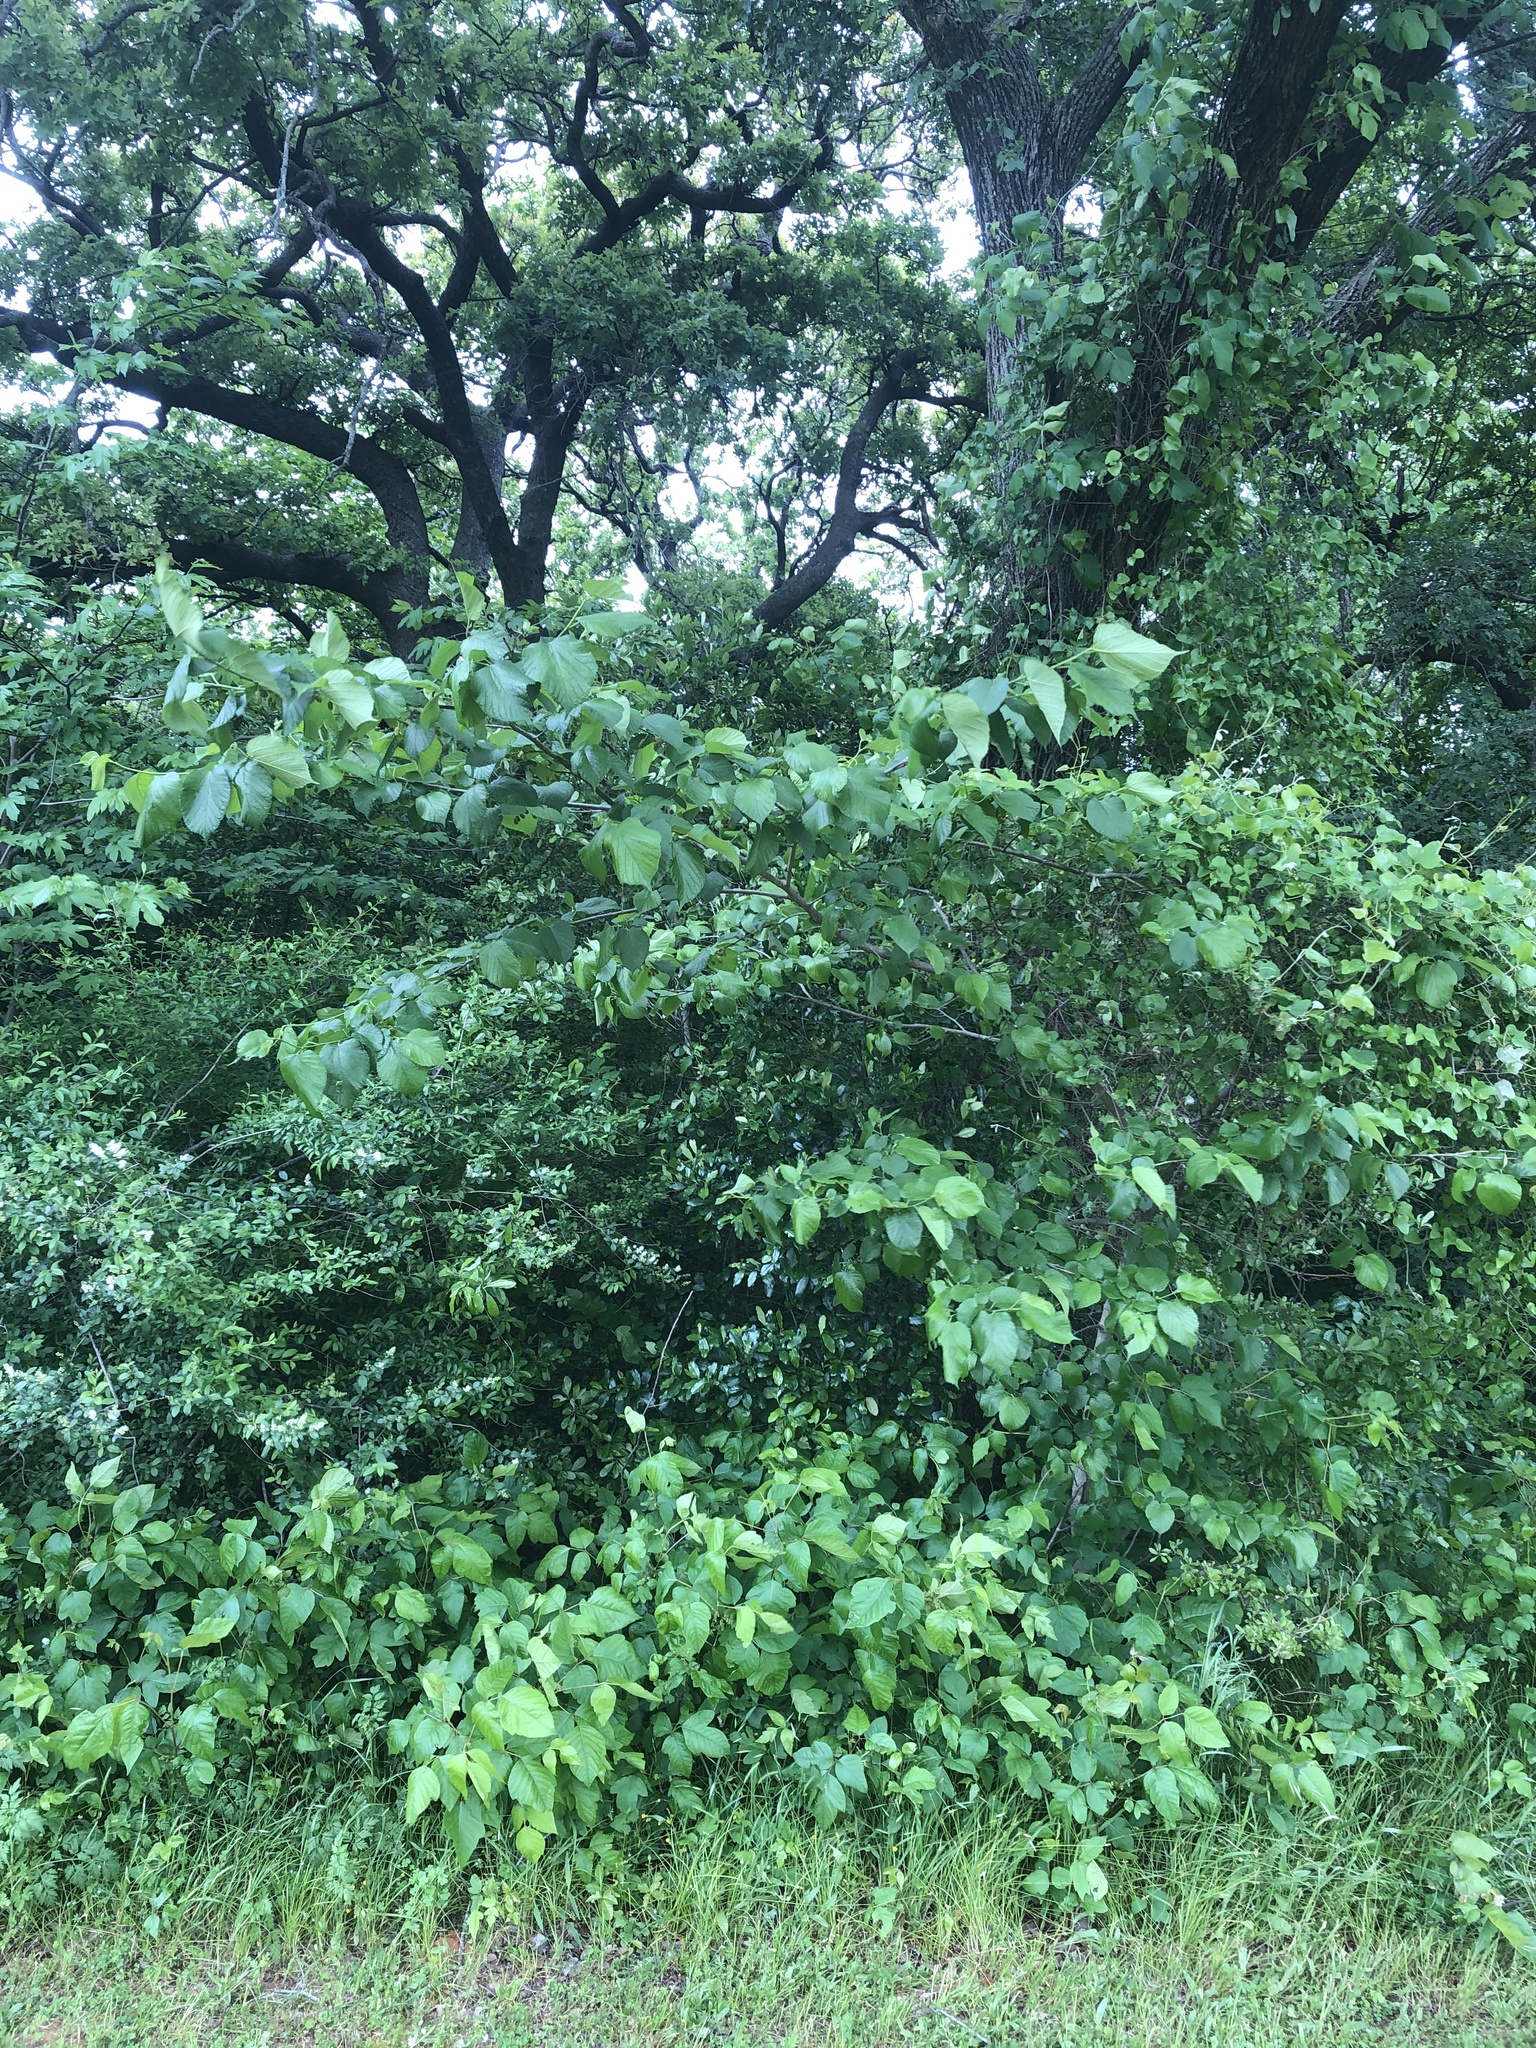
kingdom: Plantae
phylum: Tracheophyta
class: Magnoliopsida
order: Rosales
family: Moraceae
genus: Morus
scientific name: Morus rubra
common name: Red mulberry
